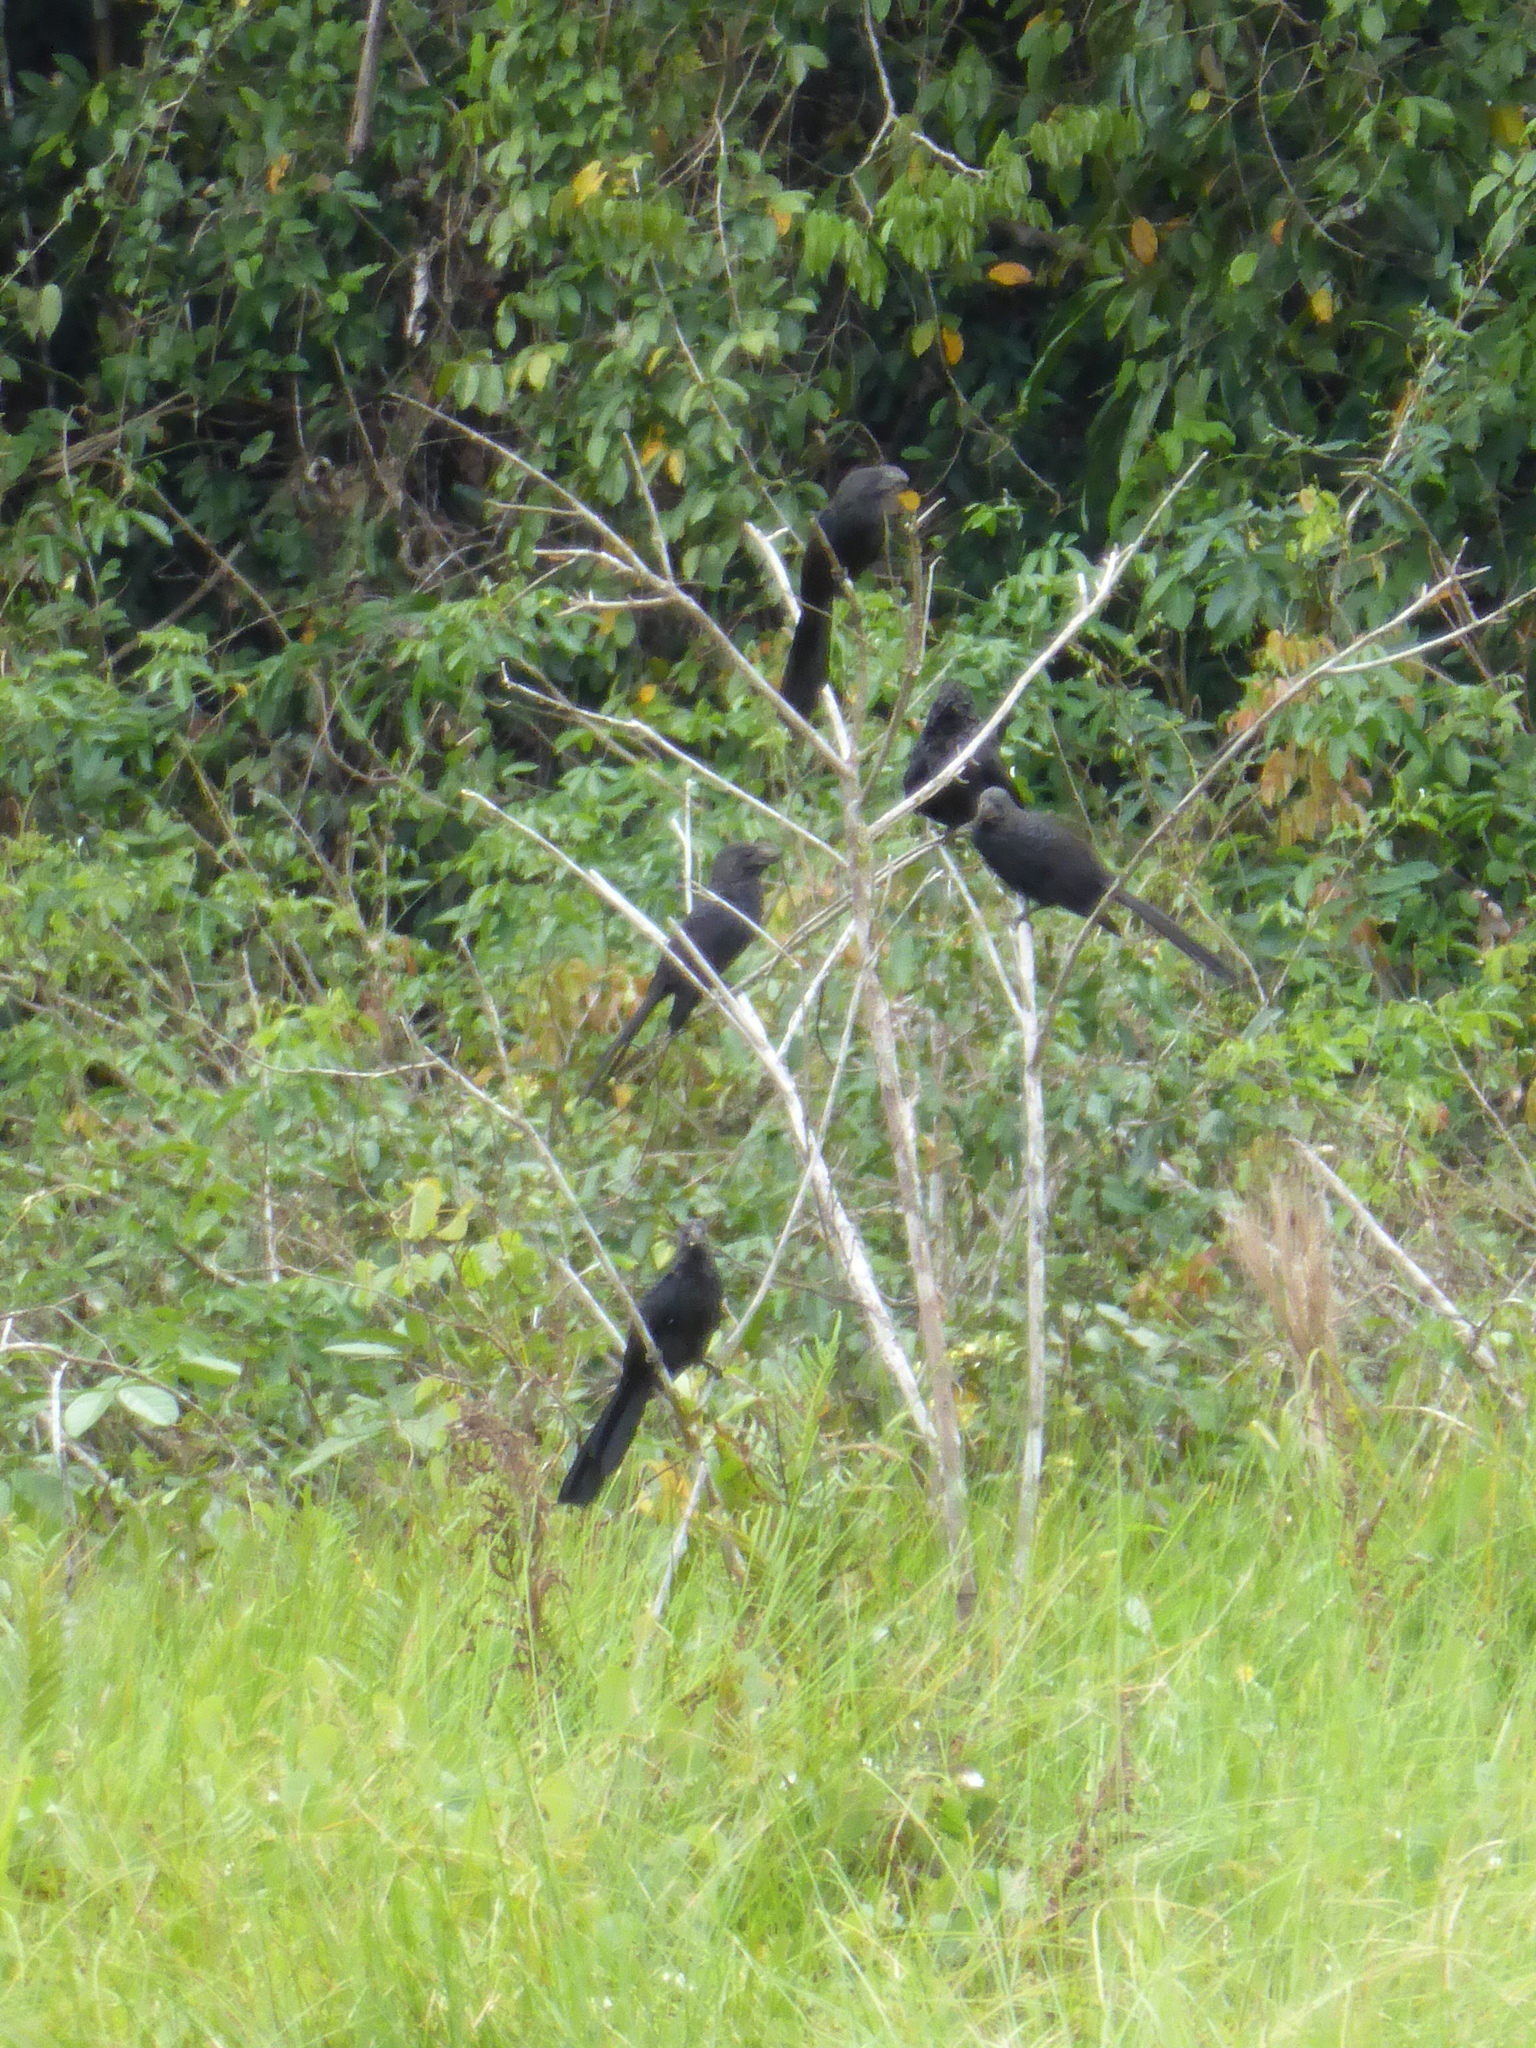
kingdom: Animalia
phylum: Chordata
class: Aves
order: Cuculiformes
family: Cuculidae
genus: Crotophaga
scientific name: Crotophaga ani
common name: Smooth-billed ani
